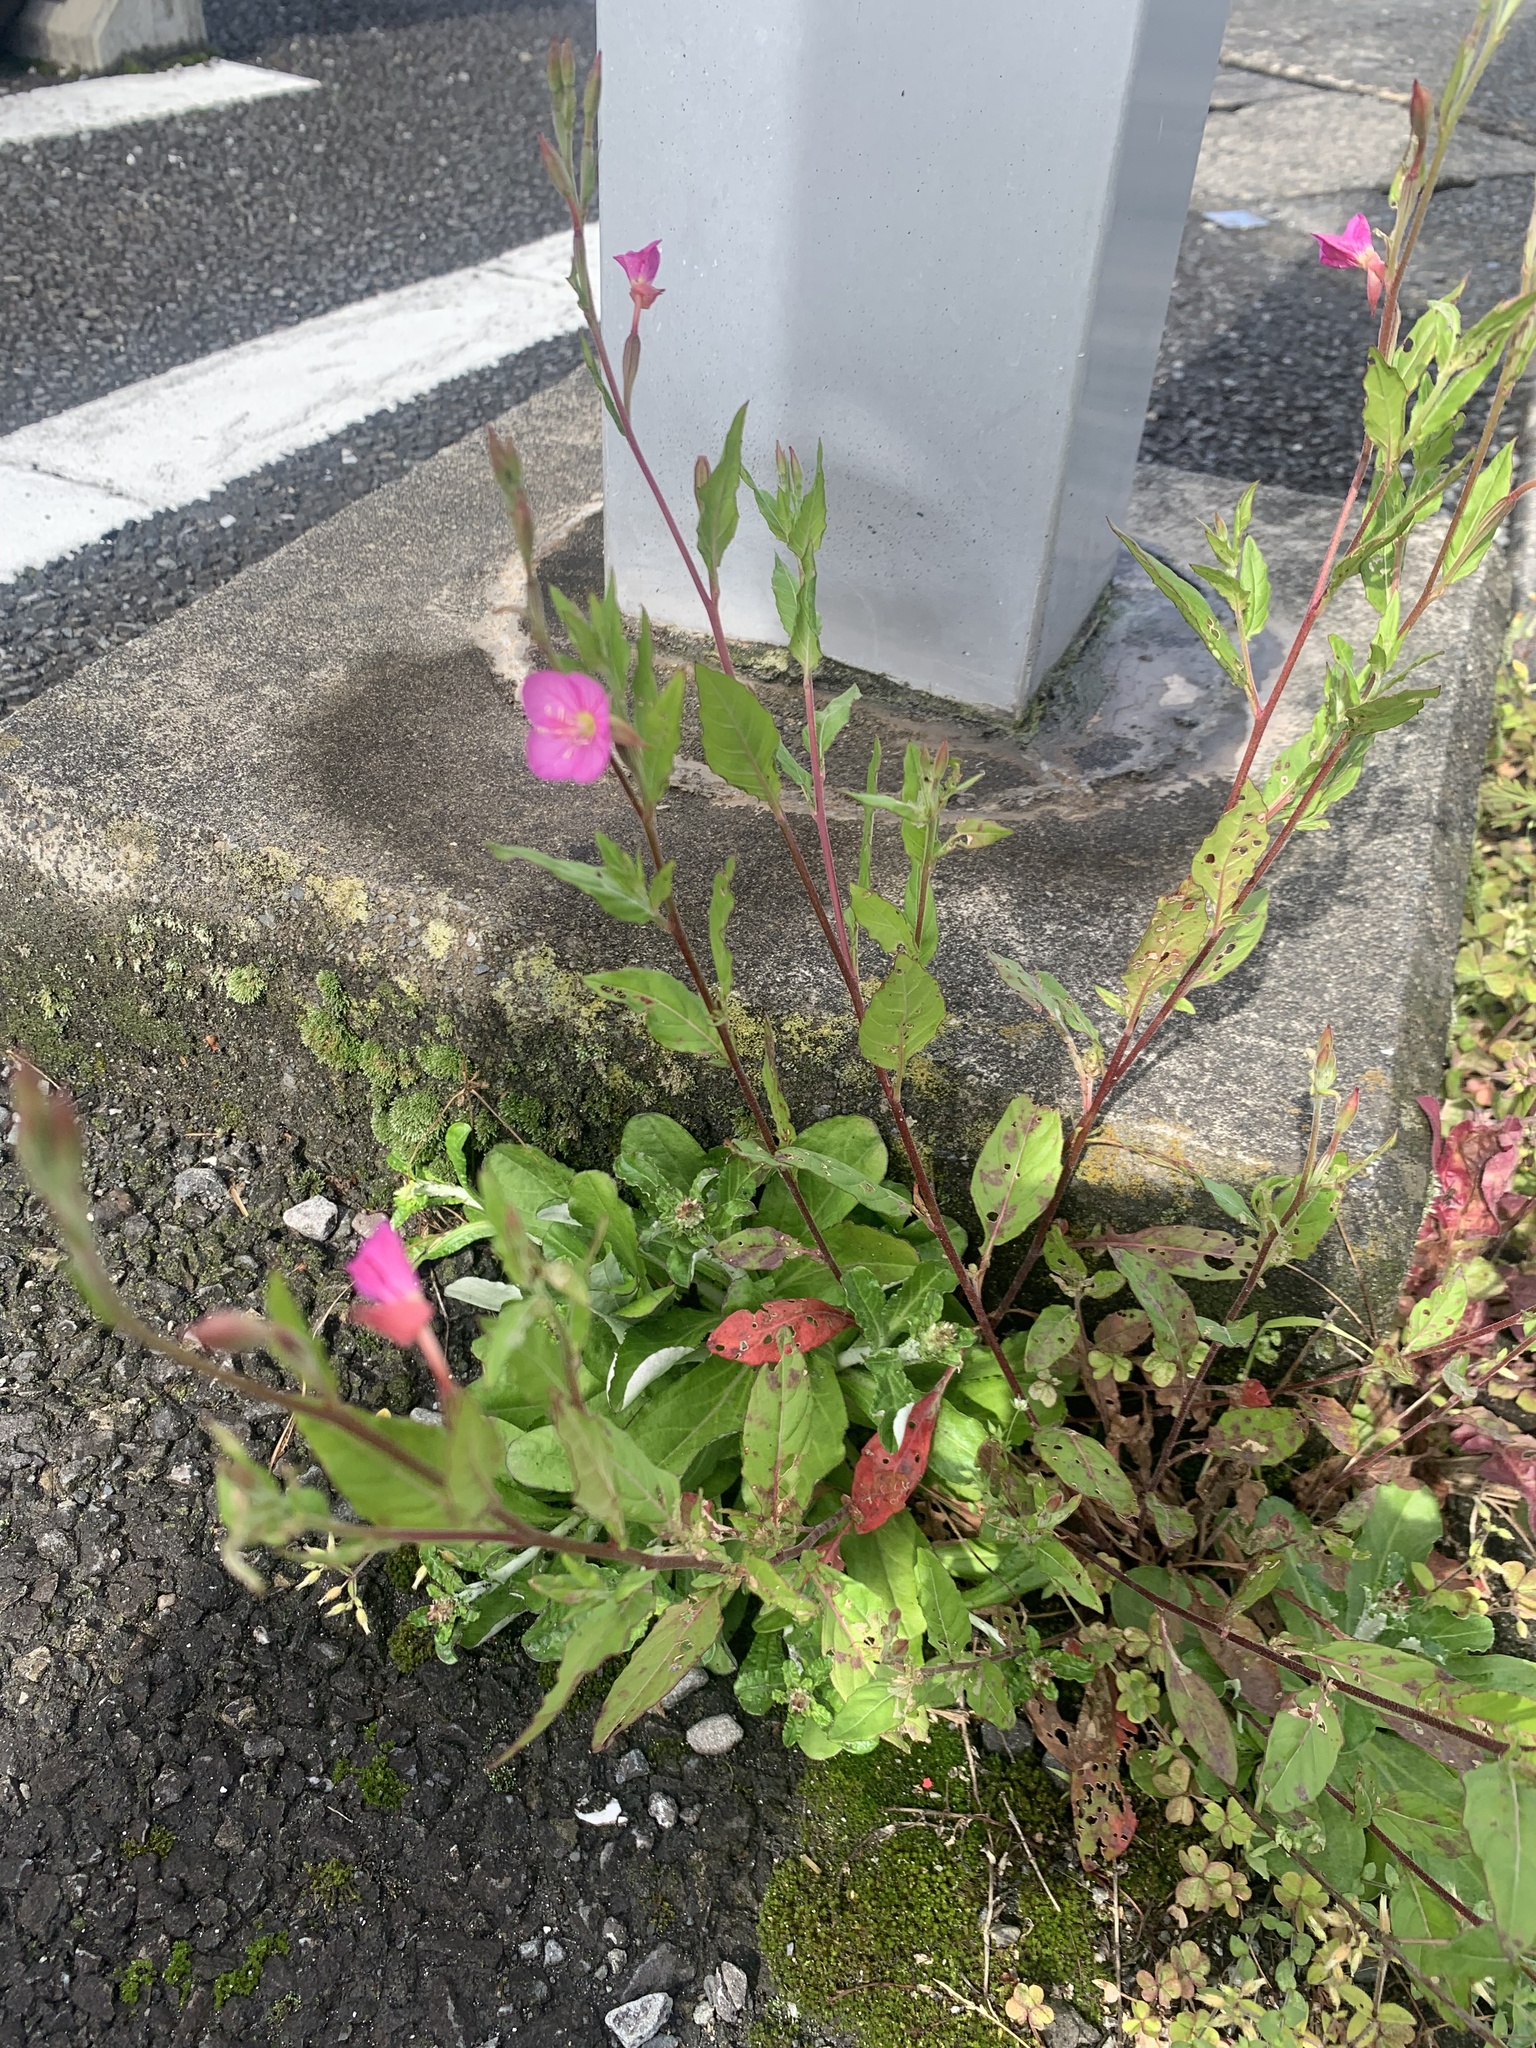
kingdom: Plantae
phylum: Tracheophyta
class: Magnoliopsida
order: Myrtales
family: Onagraceae
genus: Oenothera
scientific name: Oenothera rosea
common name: Rosy evening-primrose
